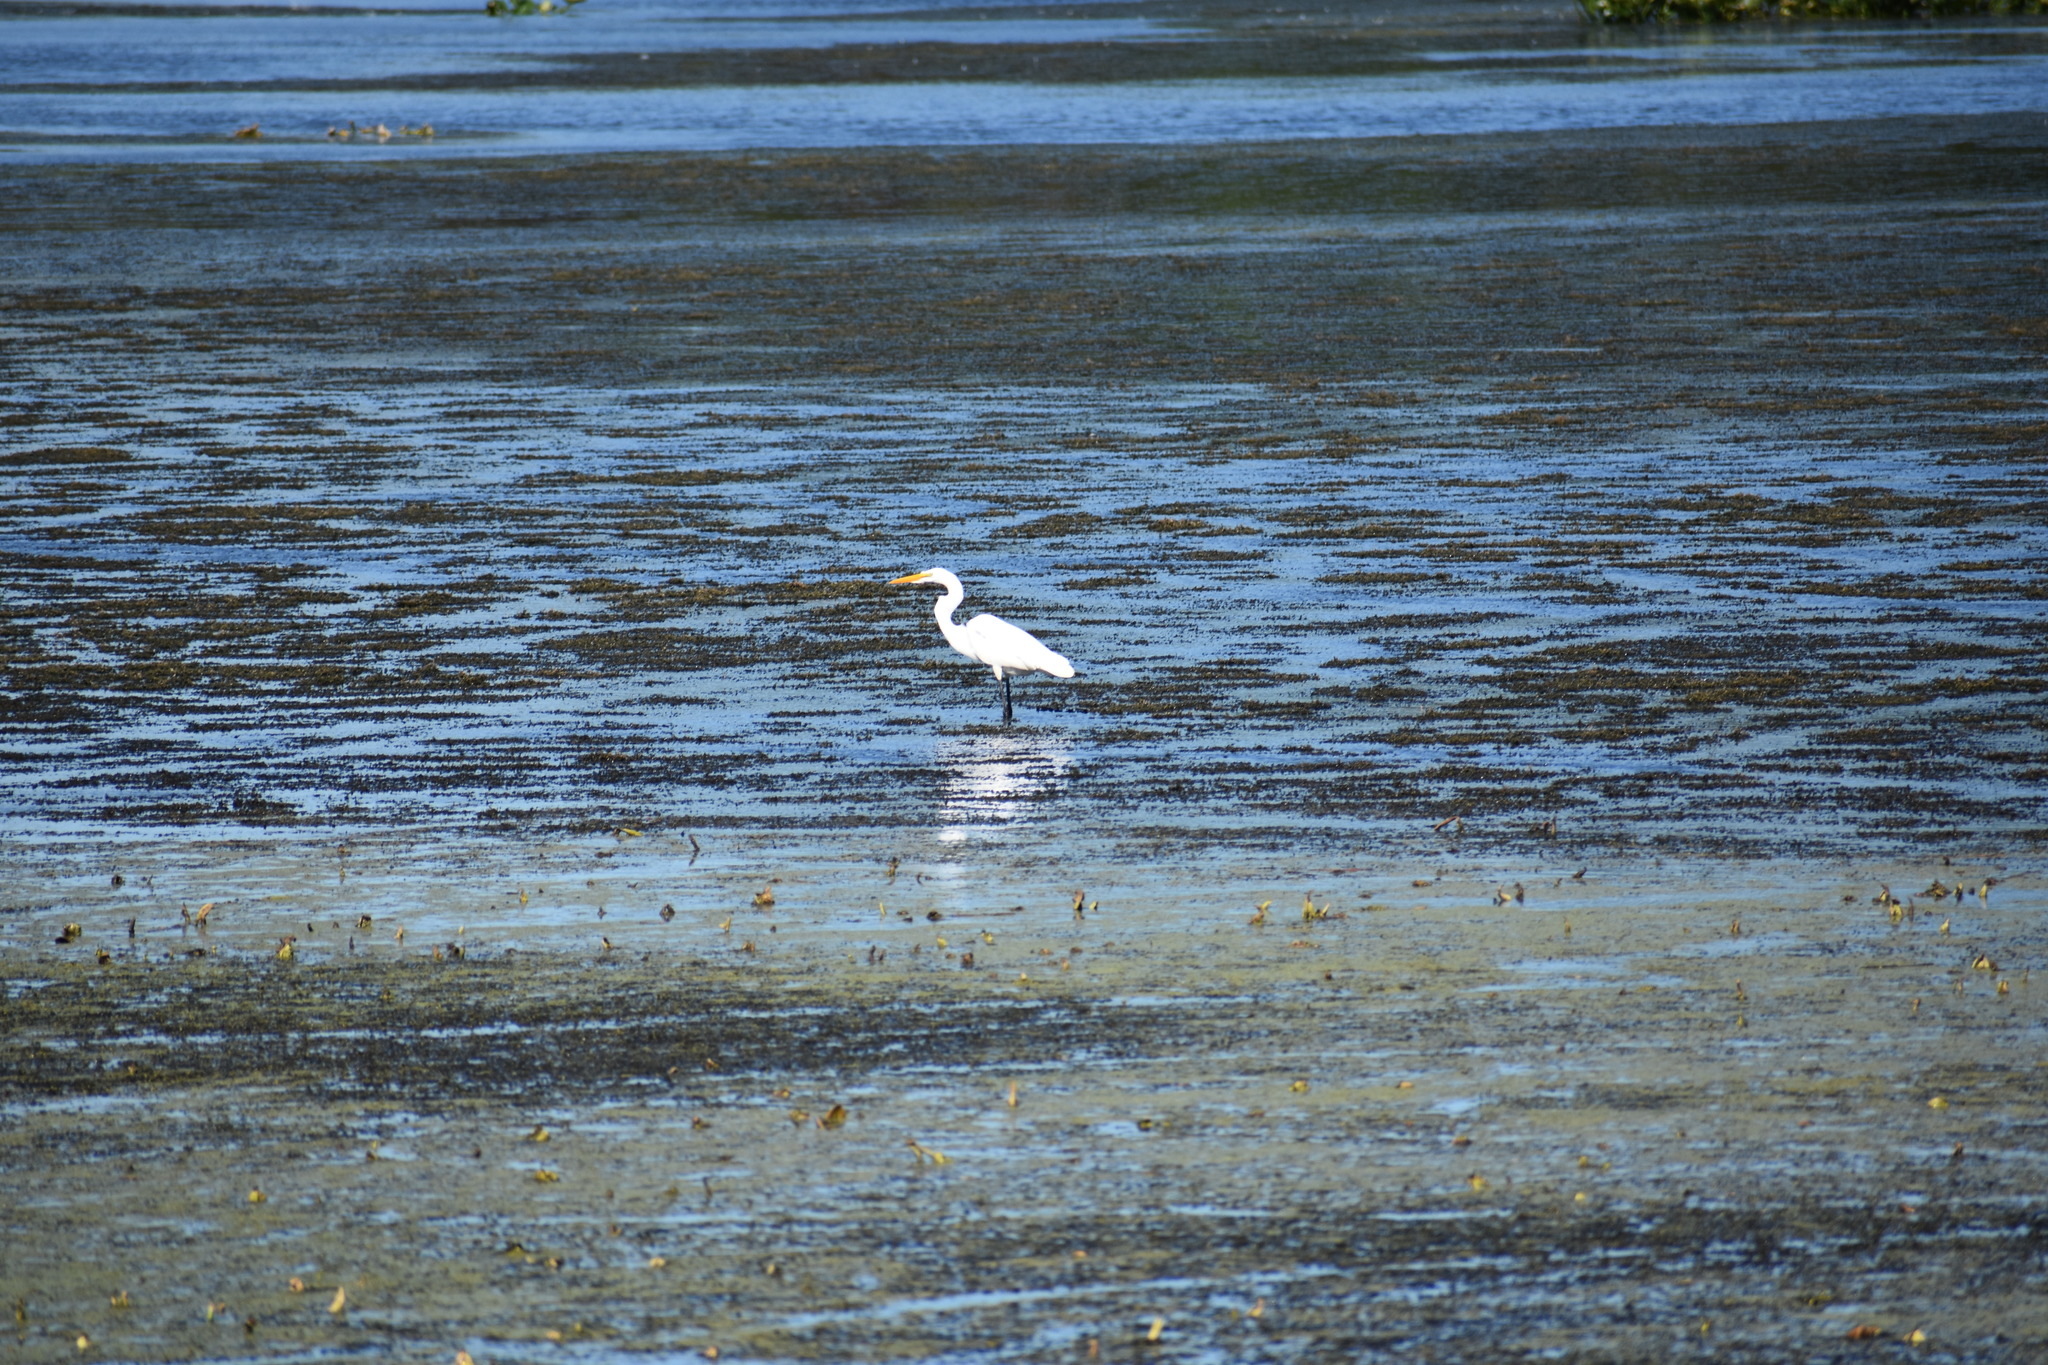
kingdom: Animalia
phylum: Chordata
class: Aves
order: Pelecaniformes
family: Ardeidae
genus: Ardea
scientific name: Ardea alba
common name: Great egret
